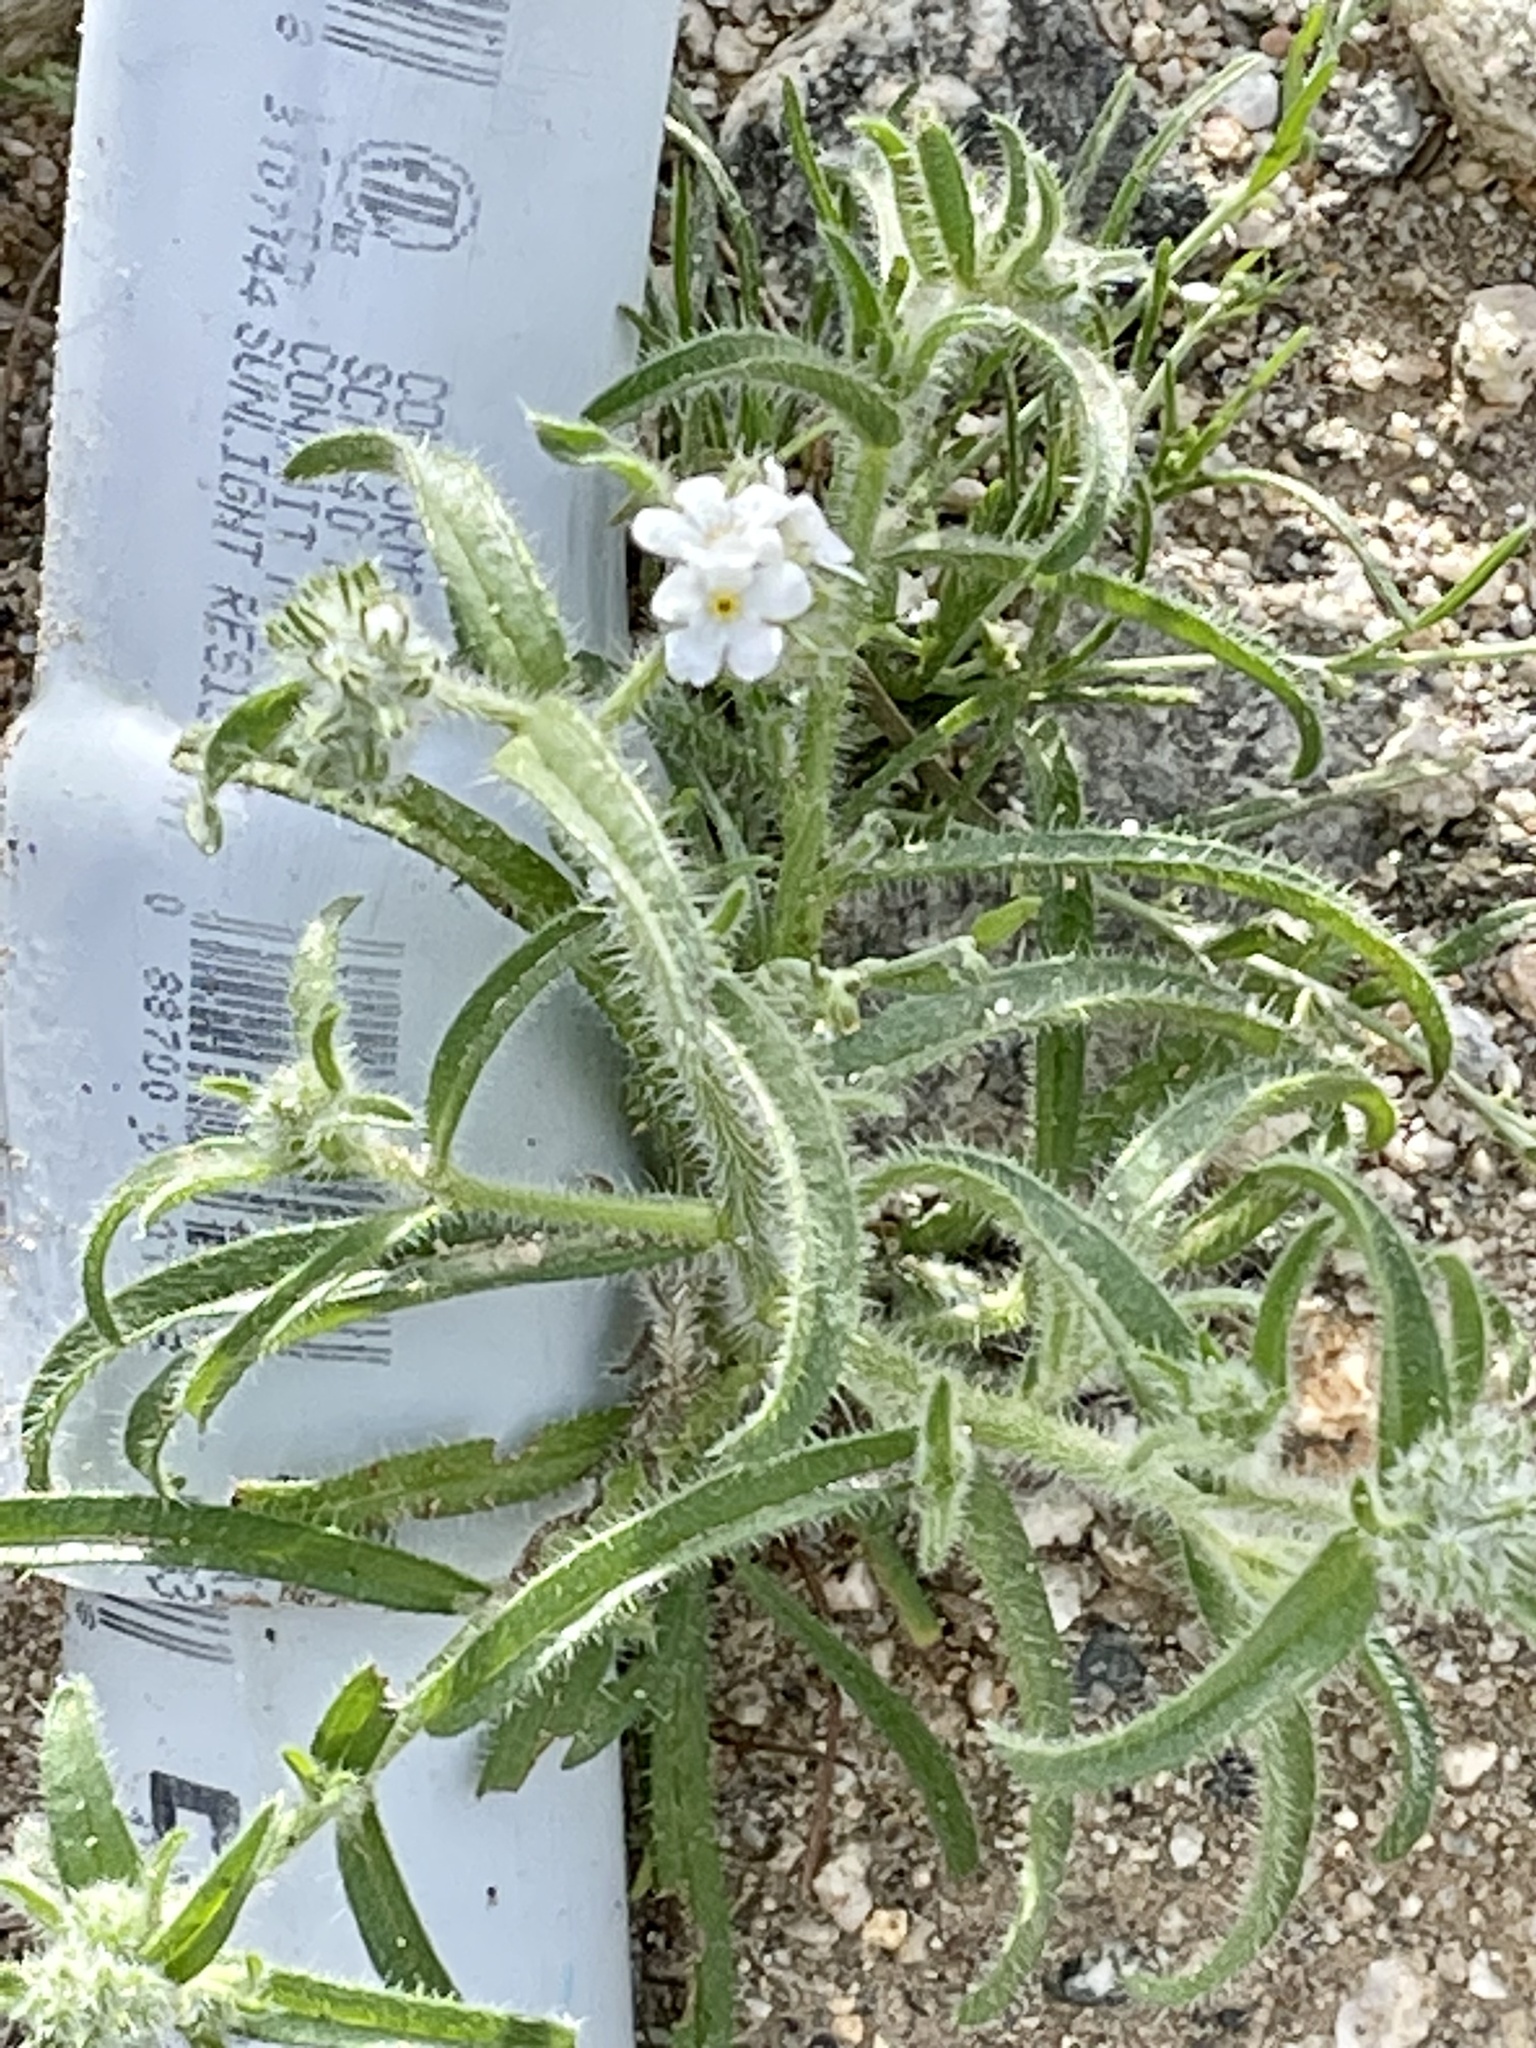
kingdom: Plantae
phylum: Tracheophyta
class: Magnoliopsida
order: Boraginales
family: Boraginaceae
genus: Johnstonella
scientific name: Johnstonella angustifolia
